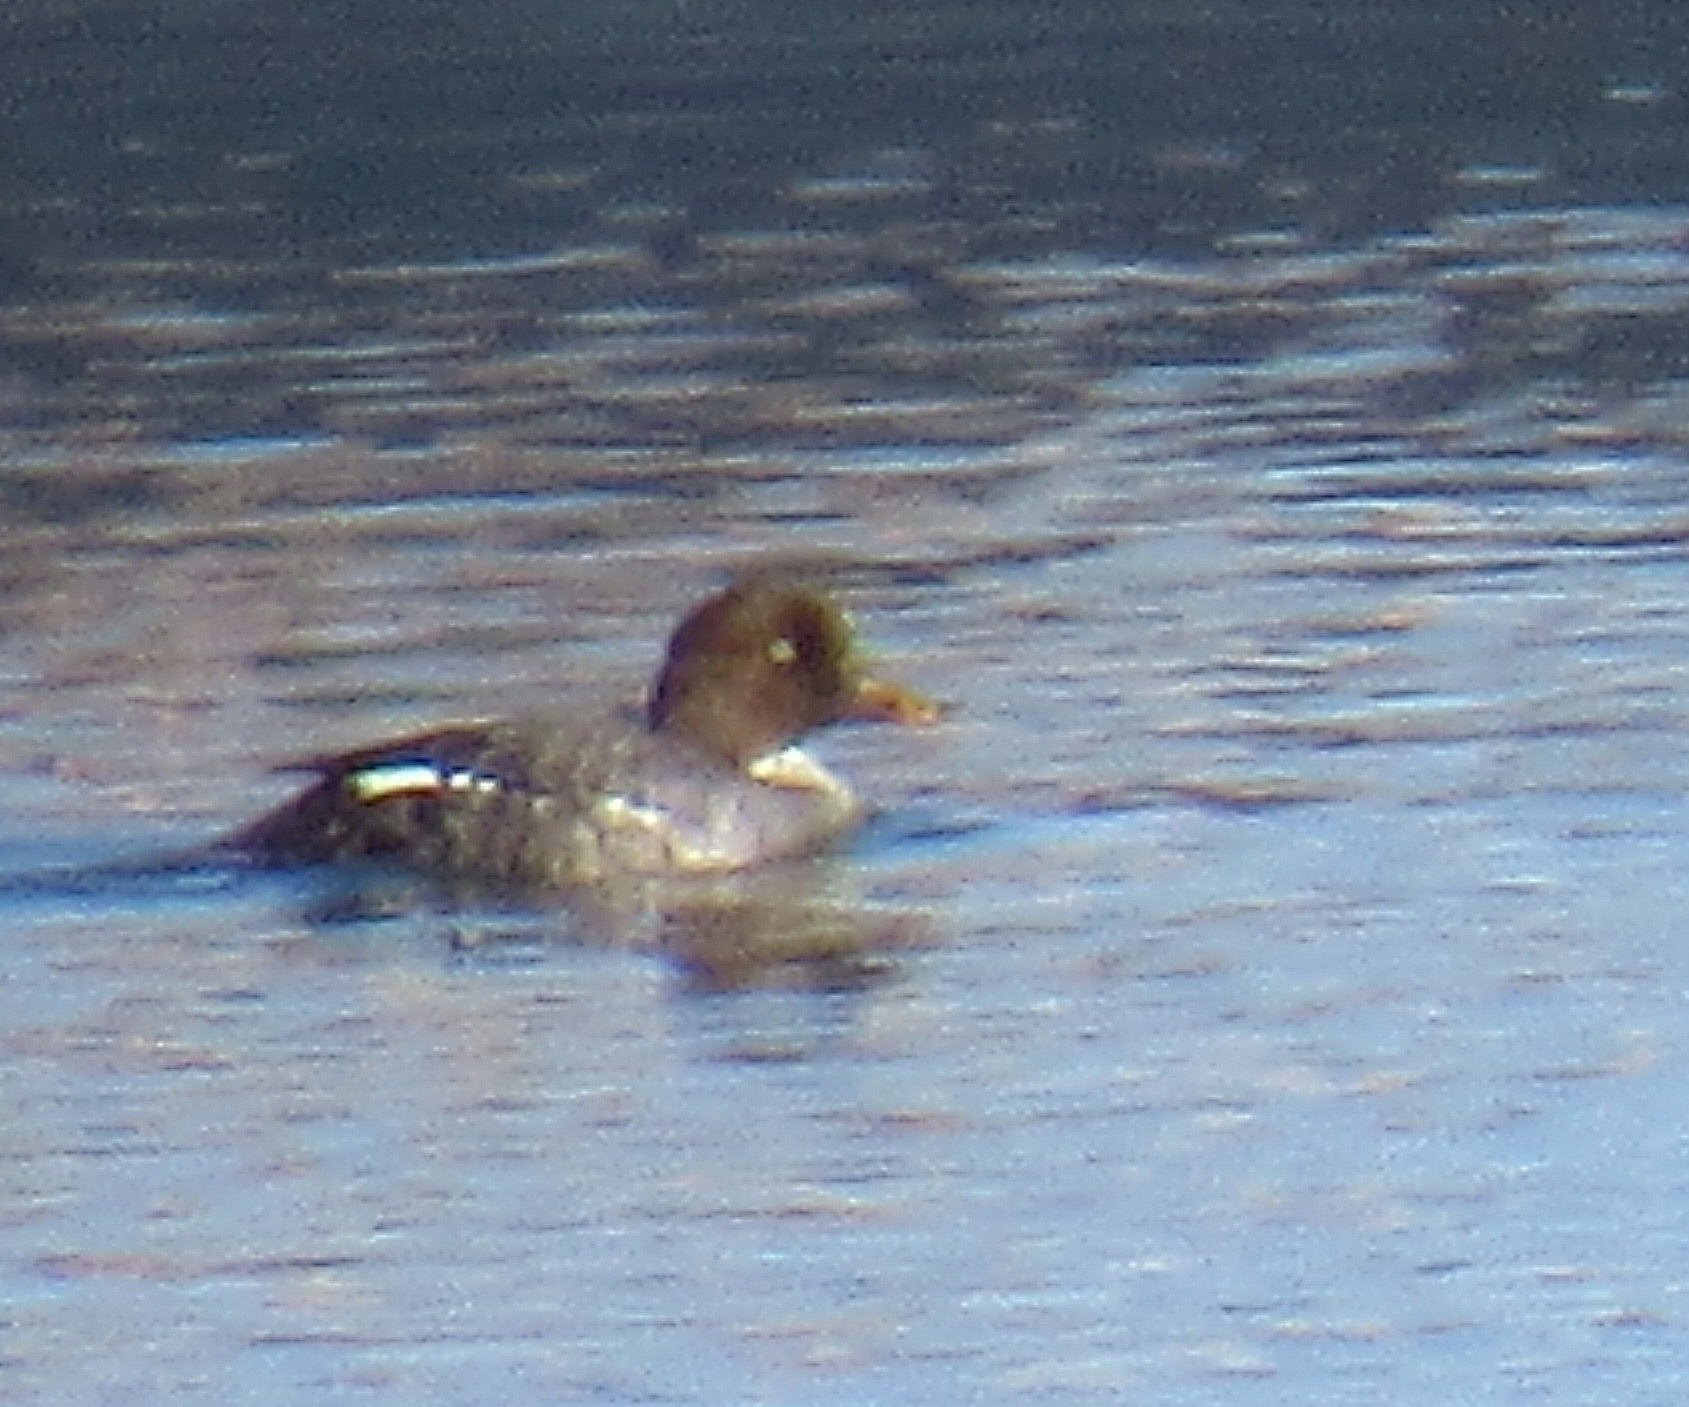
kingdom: Animalia
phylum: Chordata
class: Aves
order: Anseriformes
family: Anatidae
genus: Bucephala
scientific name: Bucephala islandica
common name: Barrow's goldeneye
